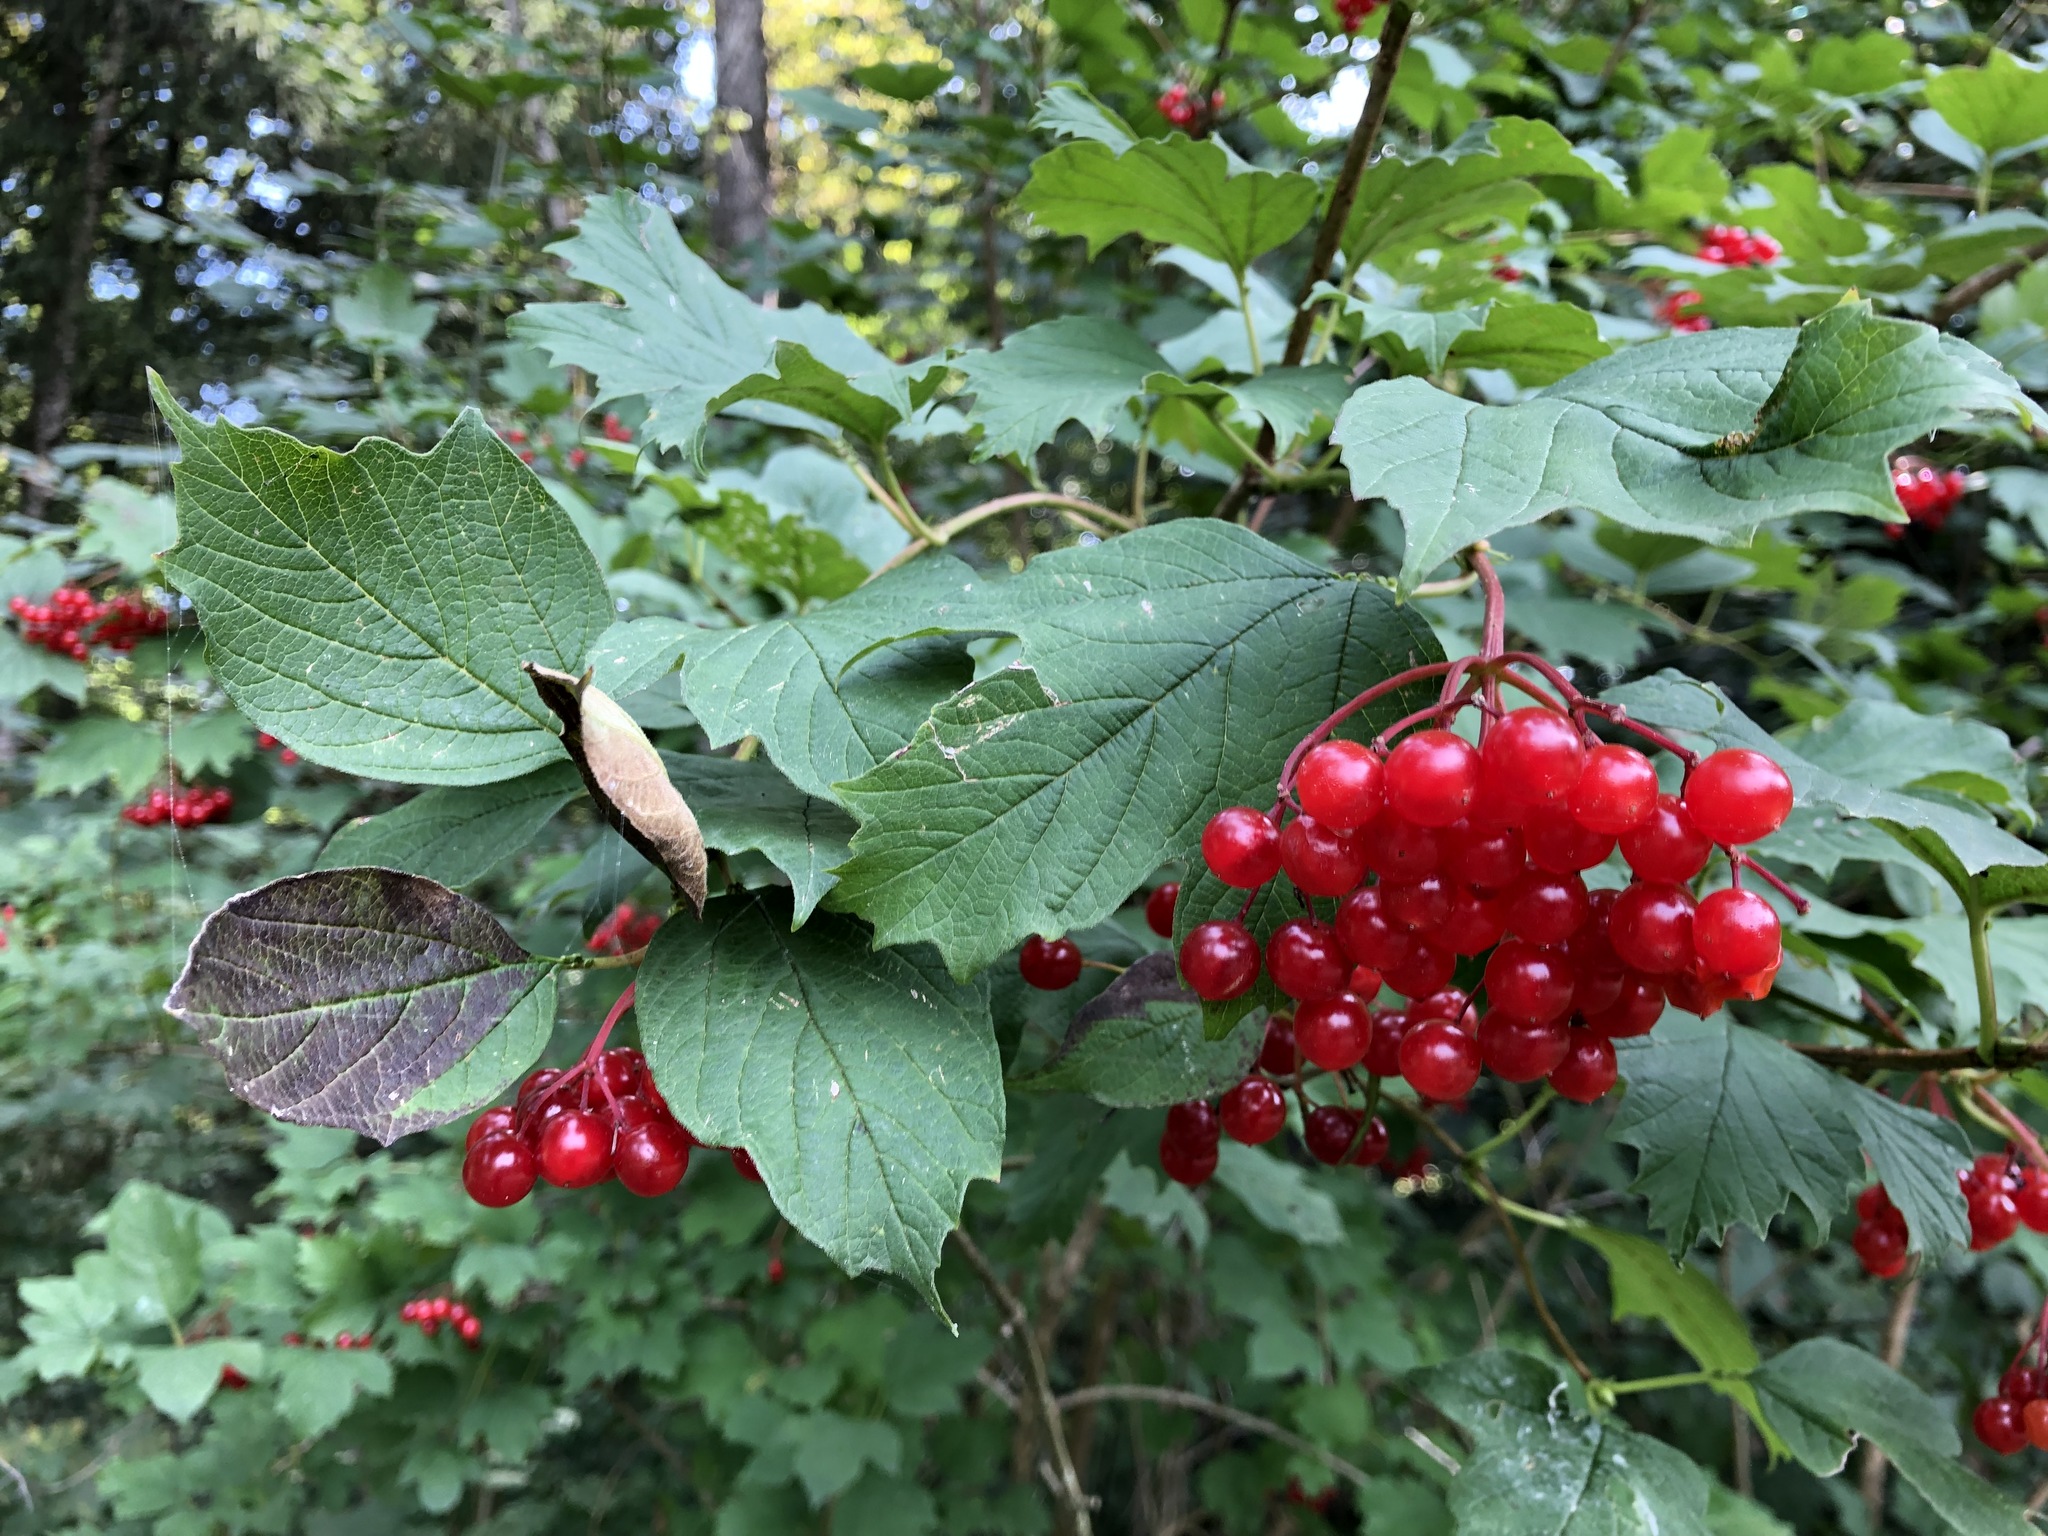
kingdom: Plantae
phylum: Tracheophyta
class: Magnoliopsida
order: Dipsacales
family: Viburnaceae
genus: Viburnum
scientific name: Viburnum opulus
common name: Guelder-rose
